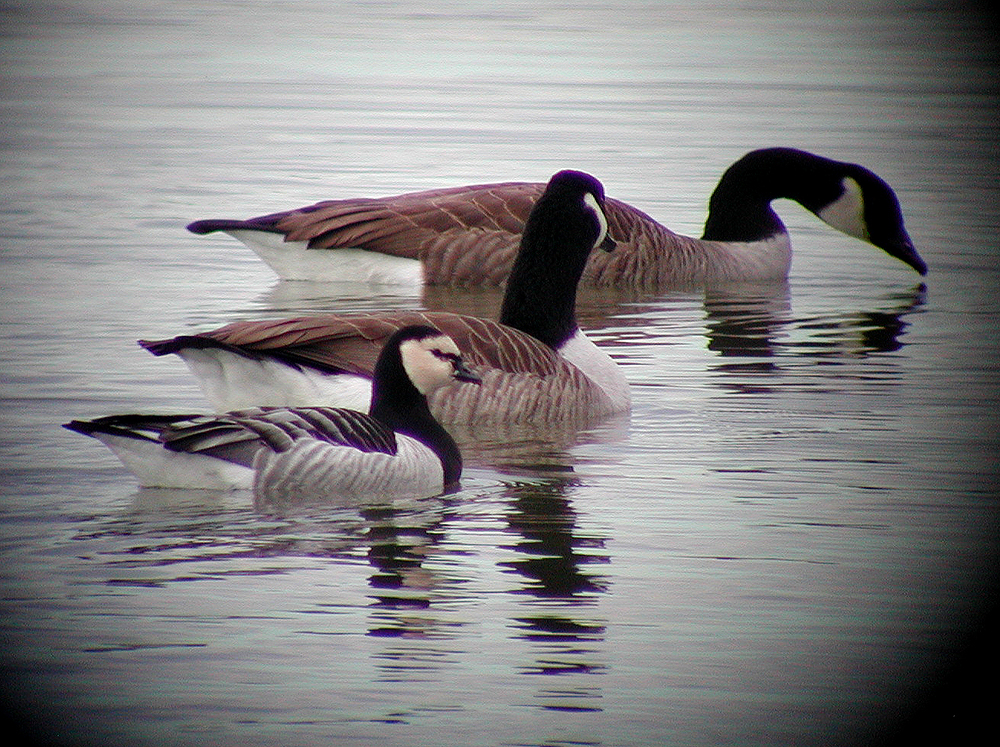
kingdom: Animalia
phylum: Chordata
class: Aves
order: Anseriformes
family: Anatidae
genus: Branta
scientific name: Branta leucopsis
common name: Barnacle goose
